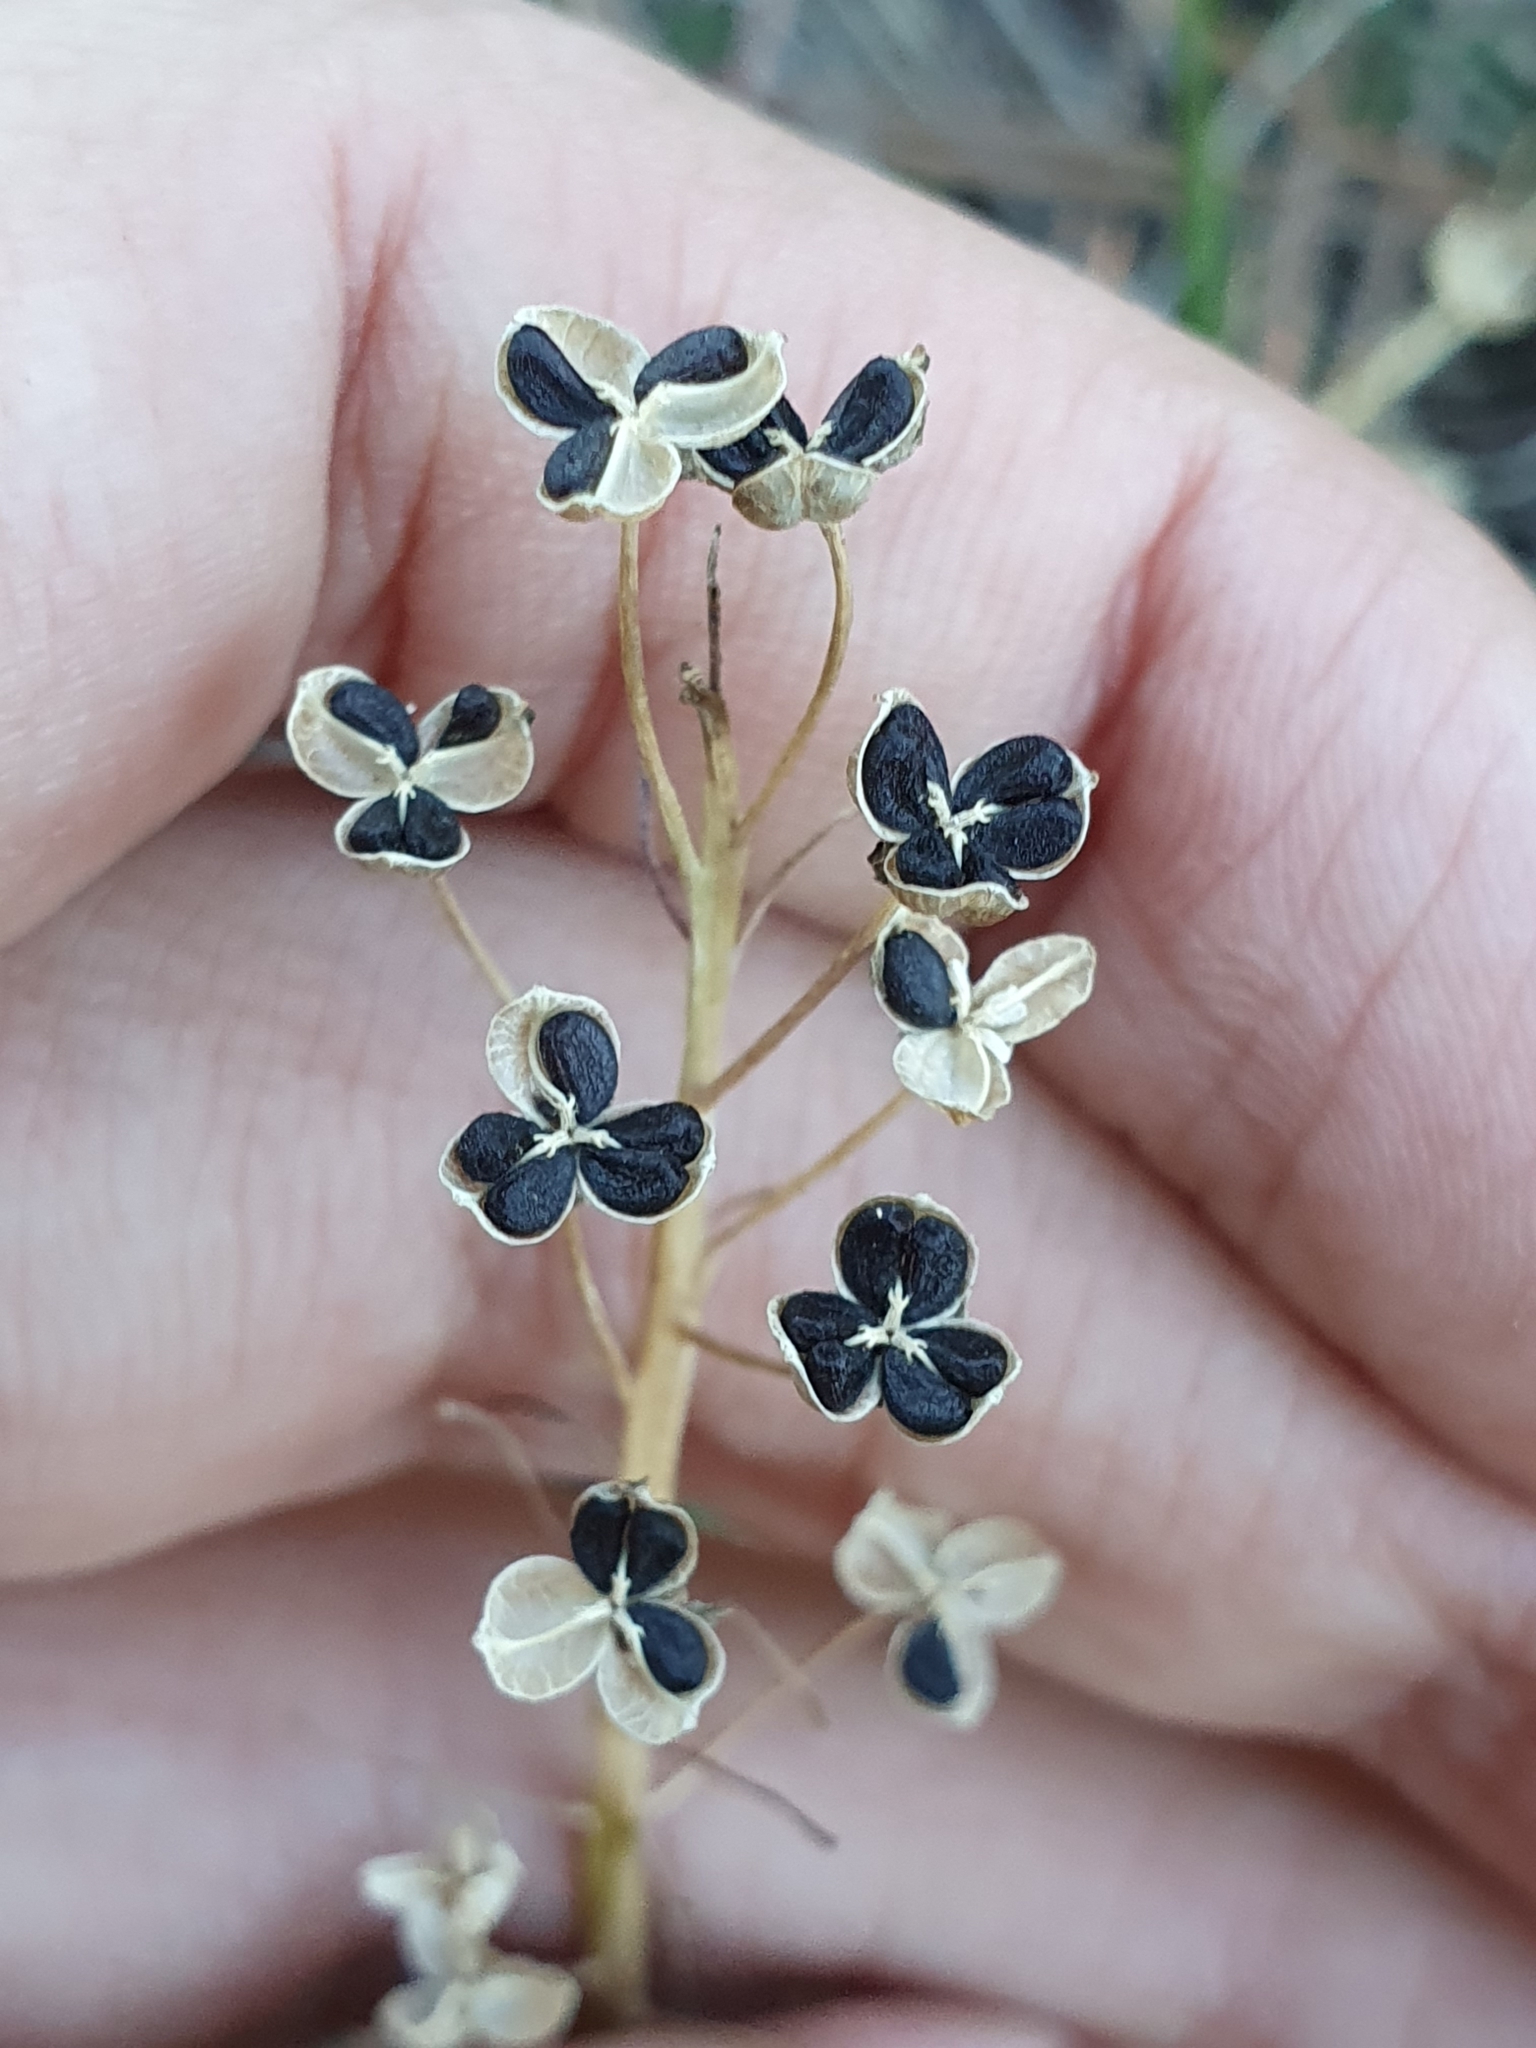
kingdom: Plantae
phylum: Tracheophyta
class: Liliopsida
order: Asparagales
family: Asparagaceae
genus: Prospero
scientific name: Prospero fallax
